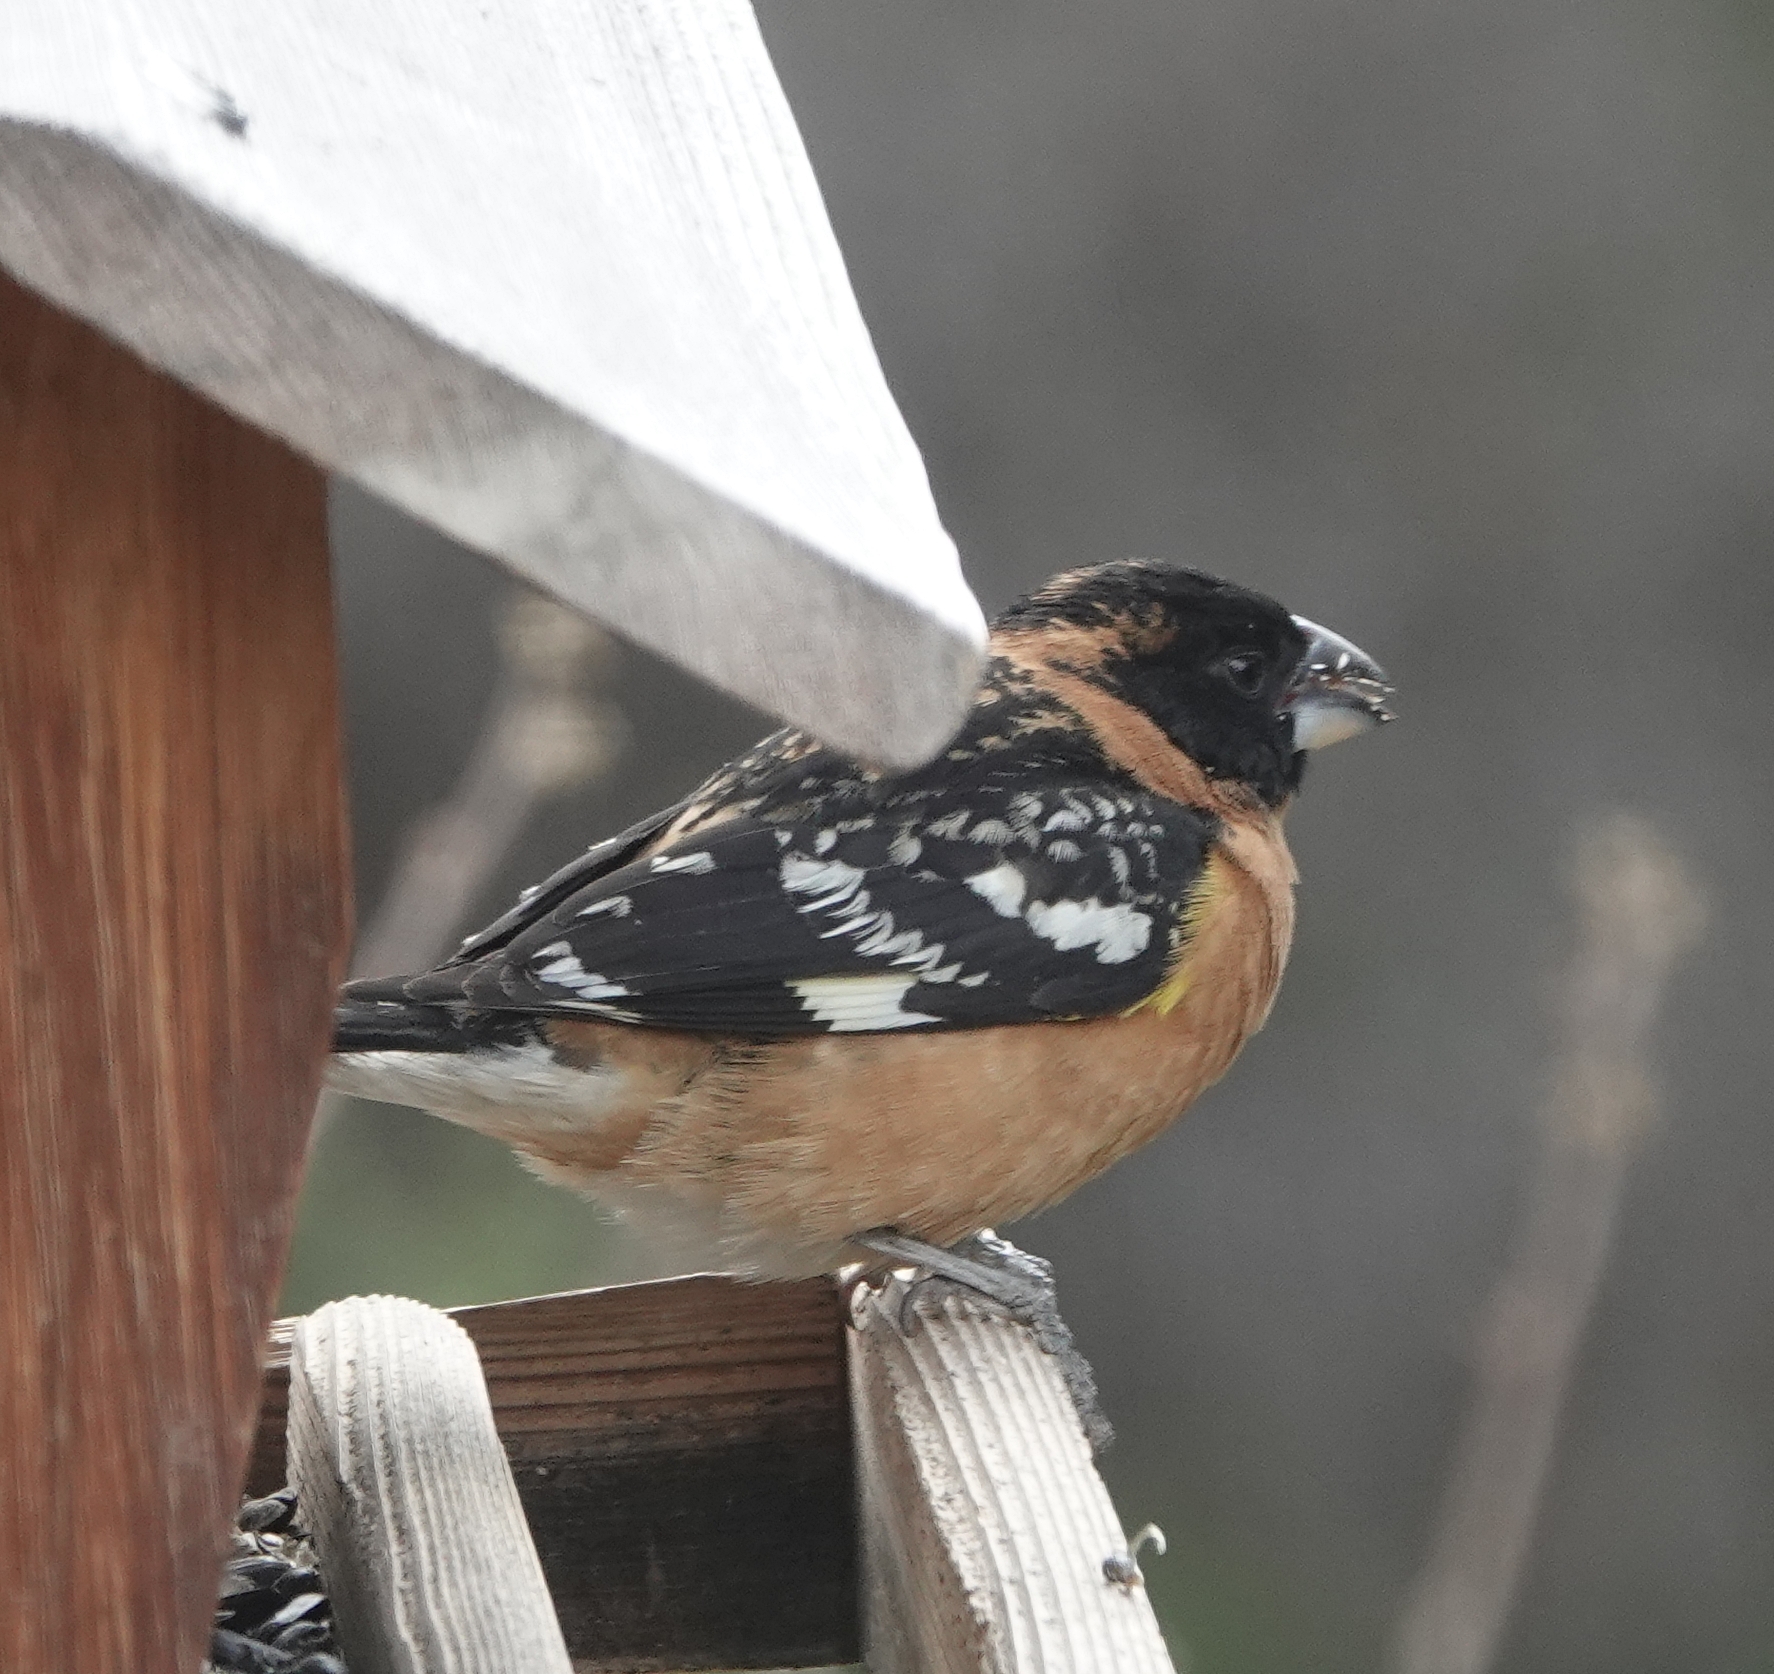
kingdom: Animalia
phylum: Chordata
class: Aves
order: Passeriformes
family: Cardinalidae
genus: Pheucticus
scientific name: Pheucticus melanocephalus
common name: Black-headed grosbeak
